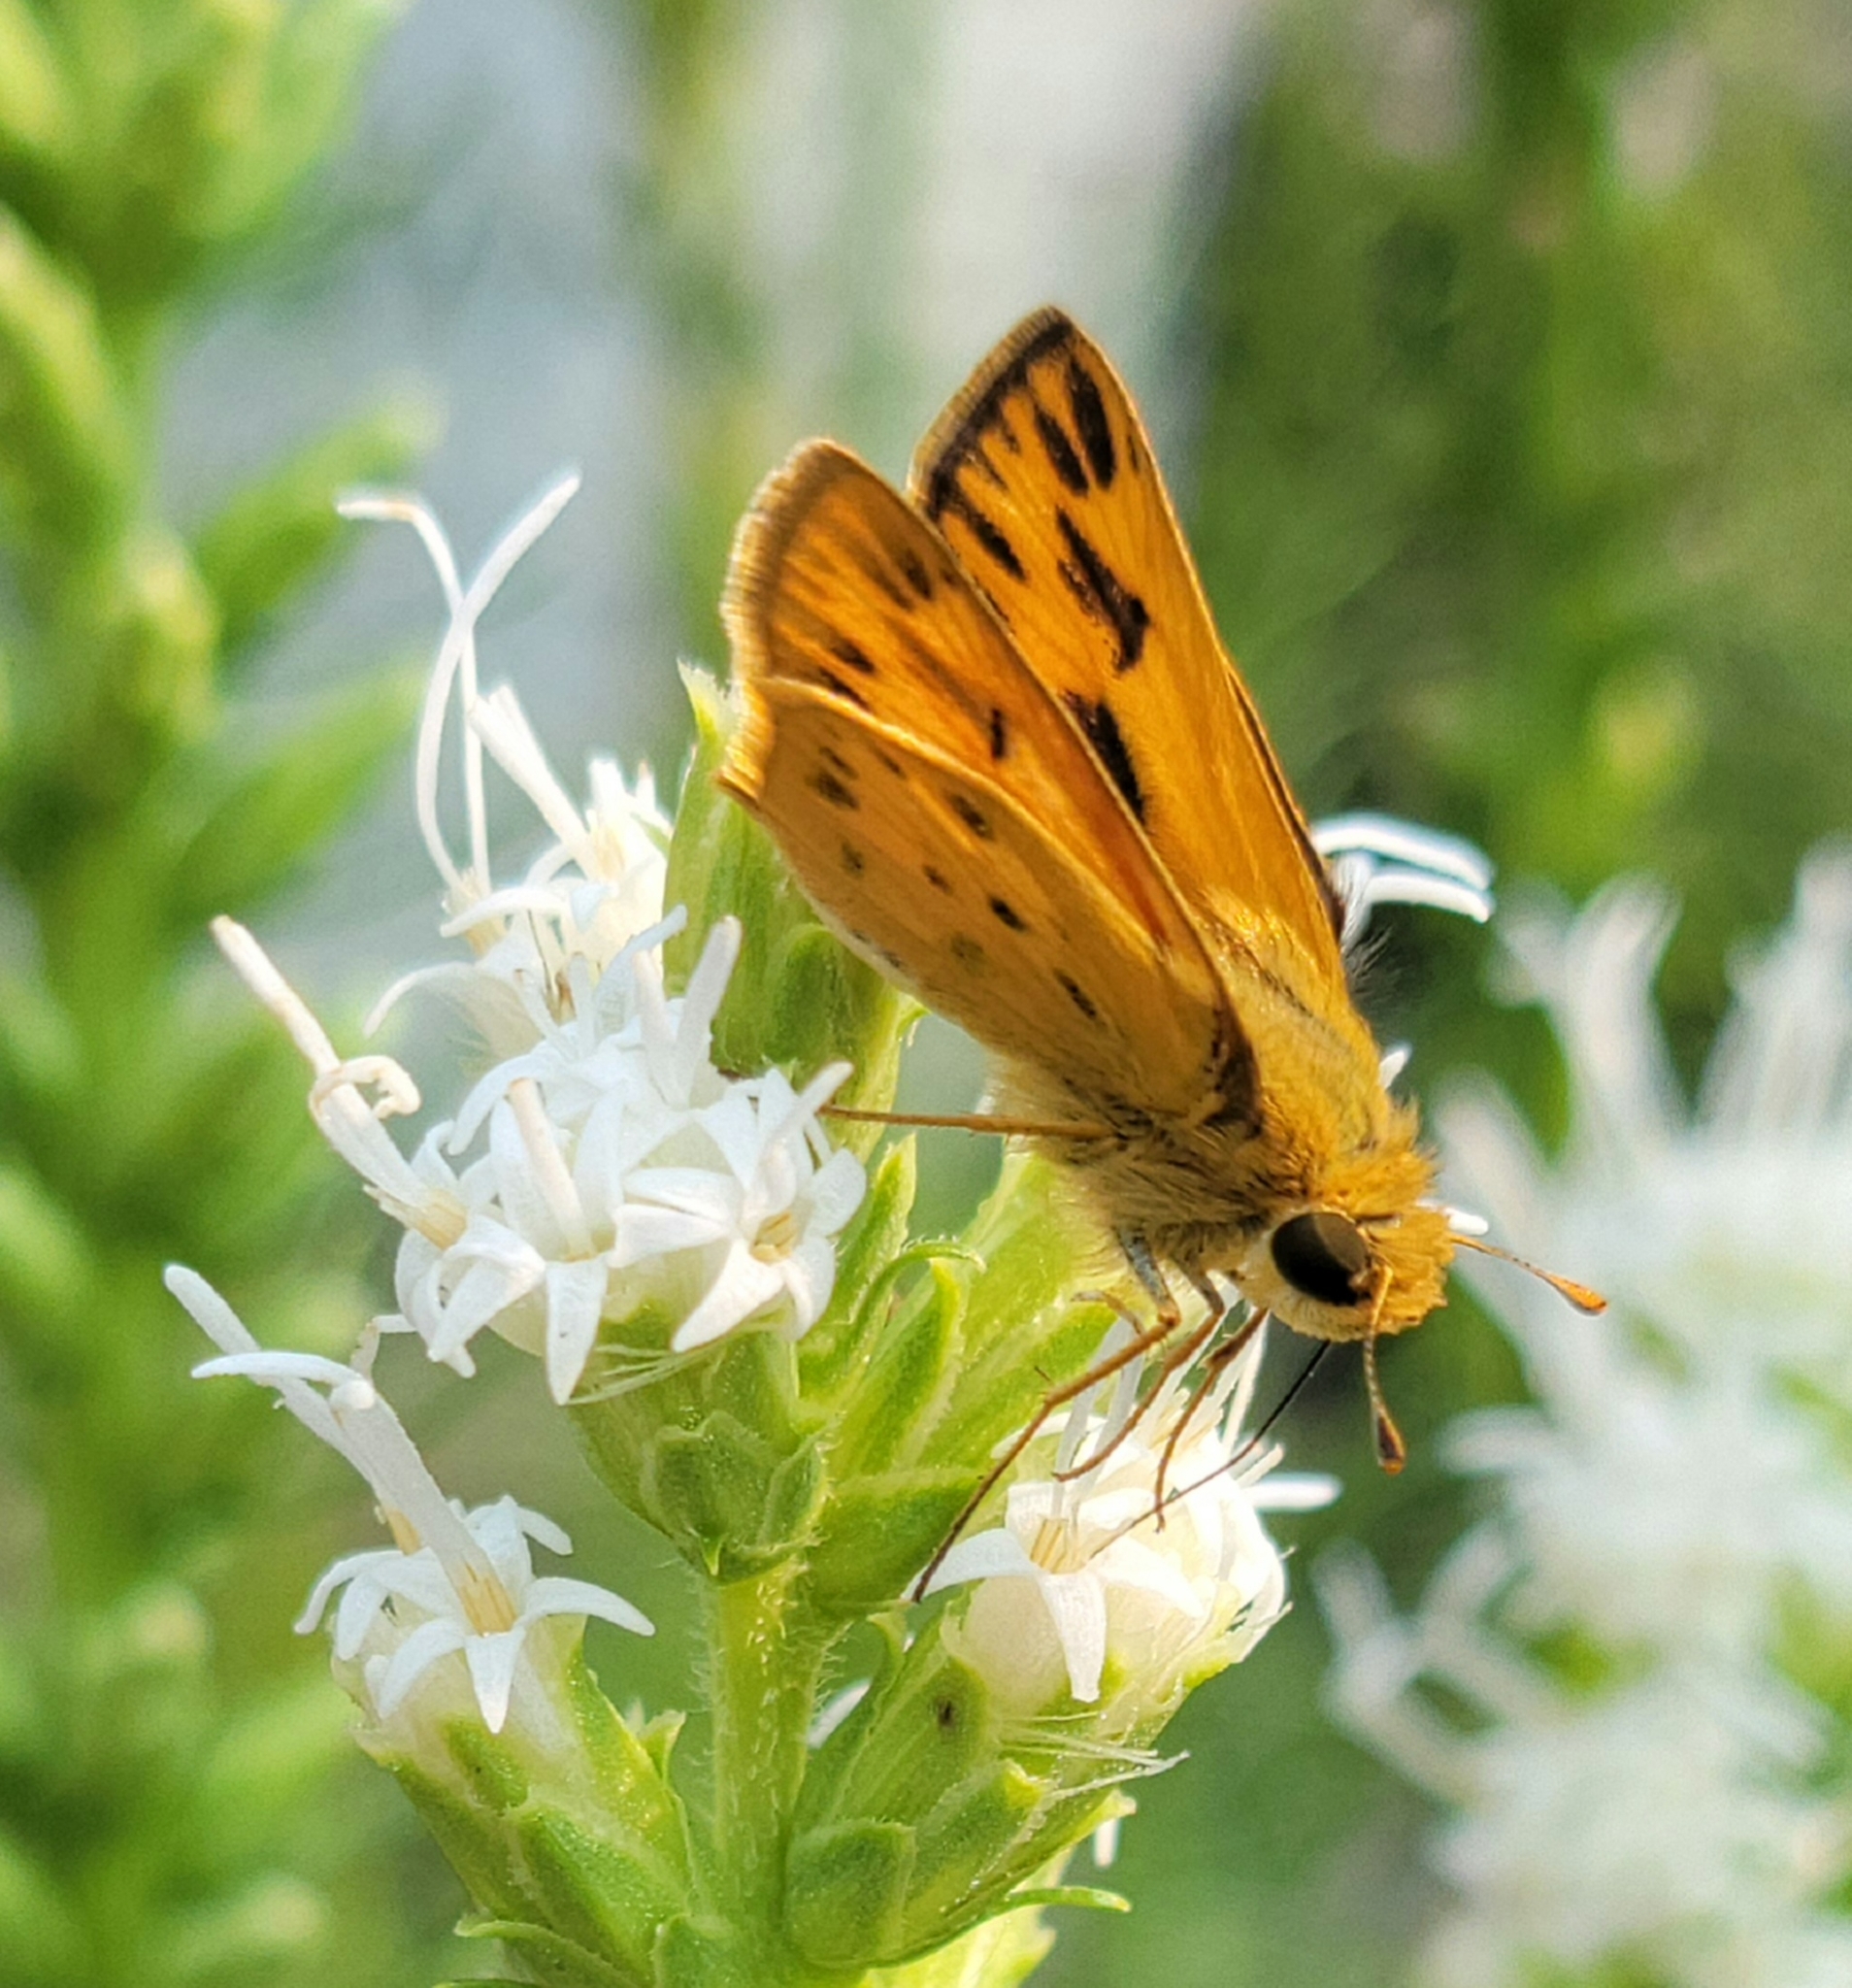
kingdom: Animalia
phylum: Arthropoda
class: Insecta
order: Lepidoptera
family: Hesperiidae
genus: Hylephila
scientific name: Hylephila phyleus
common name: Fiery skipper
